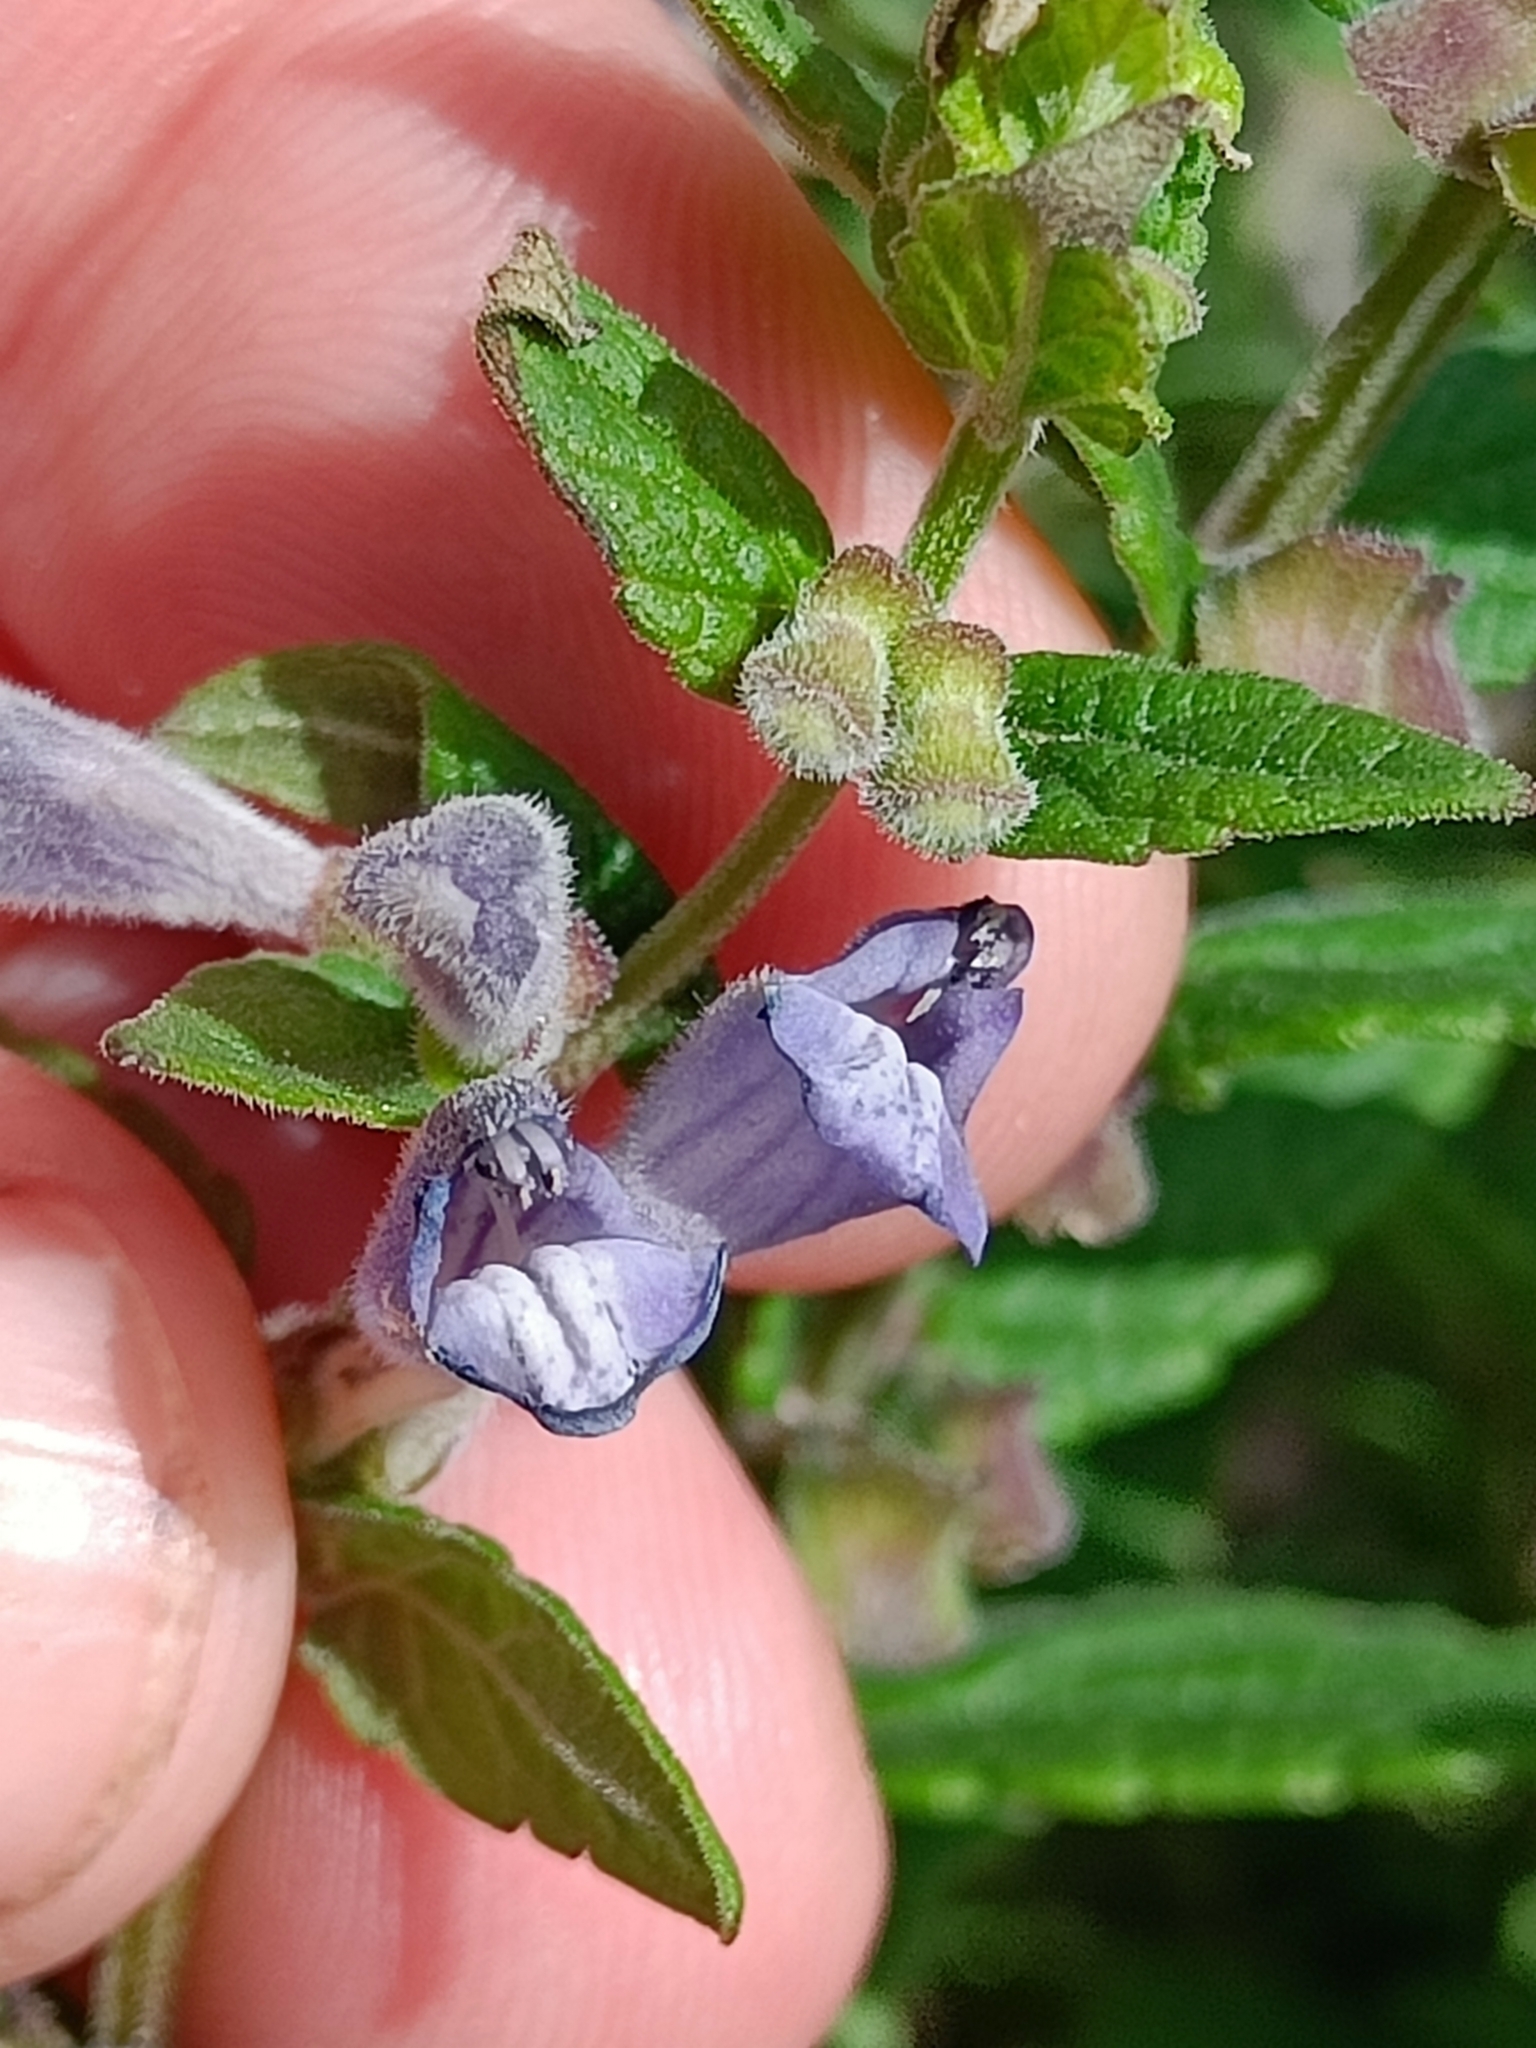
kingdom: Plantae
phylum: Tracheophyta
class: Magnoliopsida
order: Lamiales
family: Lamiaceae
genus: Scutellaria
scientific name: Scutellaria galericulata
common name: Skullcap
